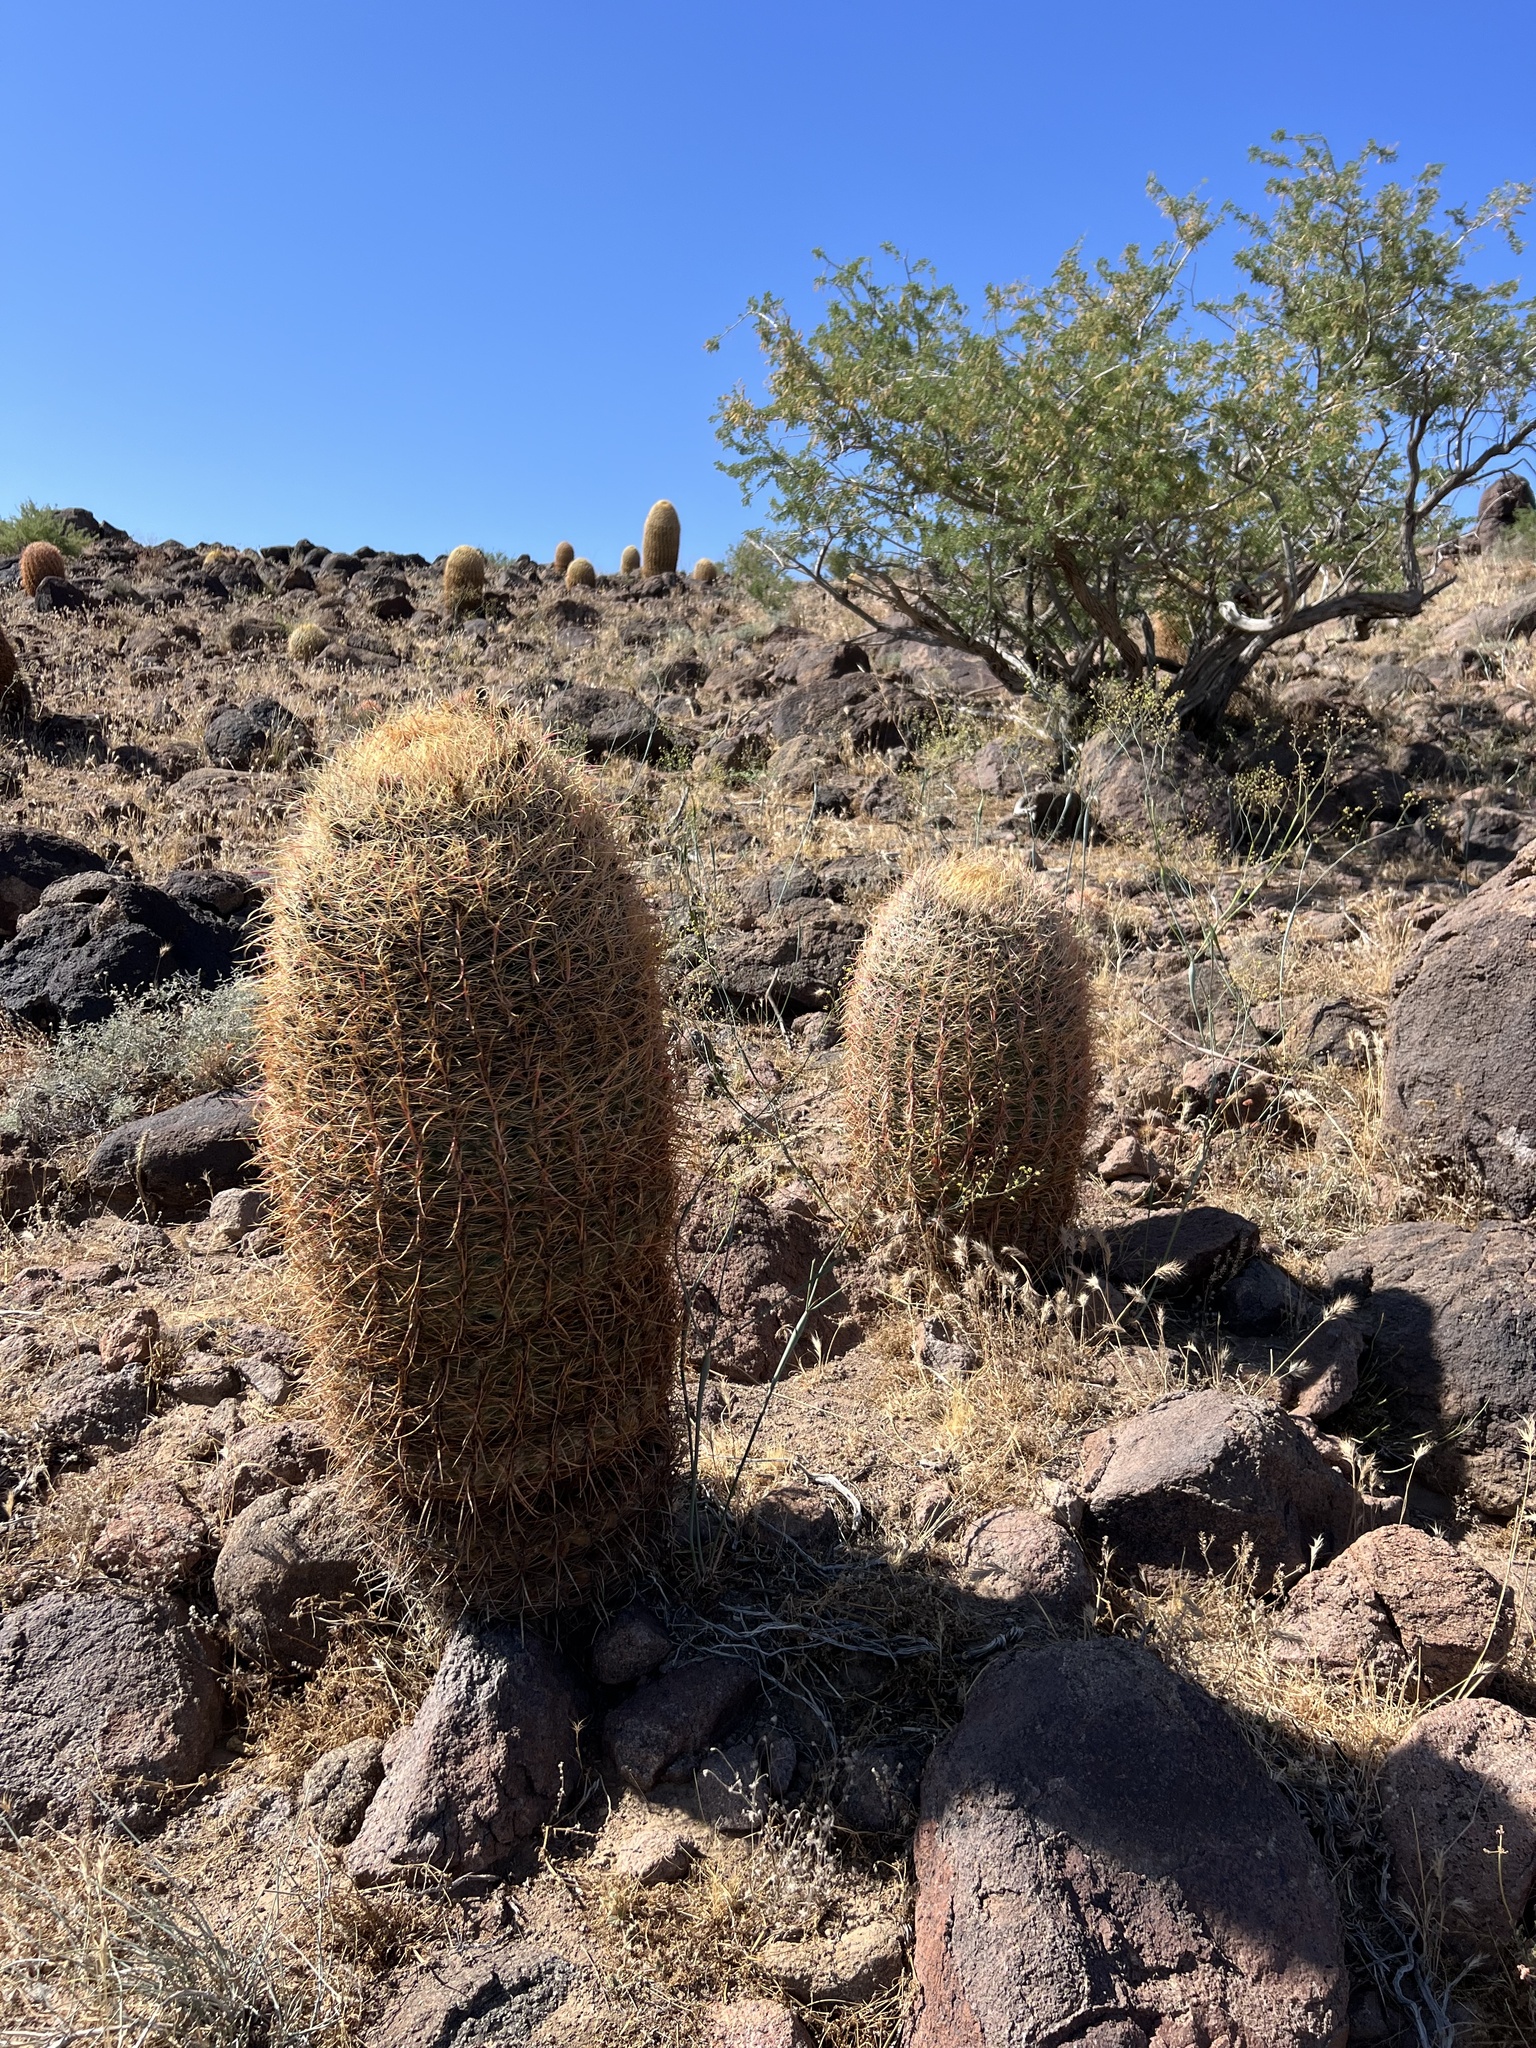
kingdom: Plantae
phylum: Tracheophyta
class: Magnoliopsida
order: Caryophyllales
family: Cactaceae
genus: Ferocactus
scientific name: Ferocactus cylindraceus
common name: California barrel cactus
